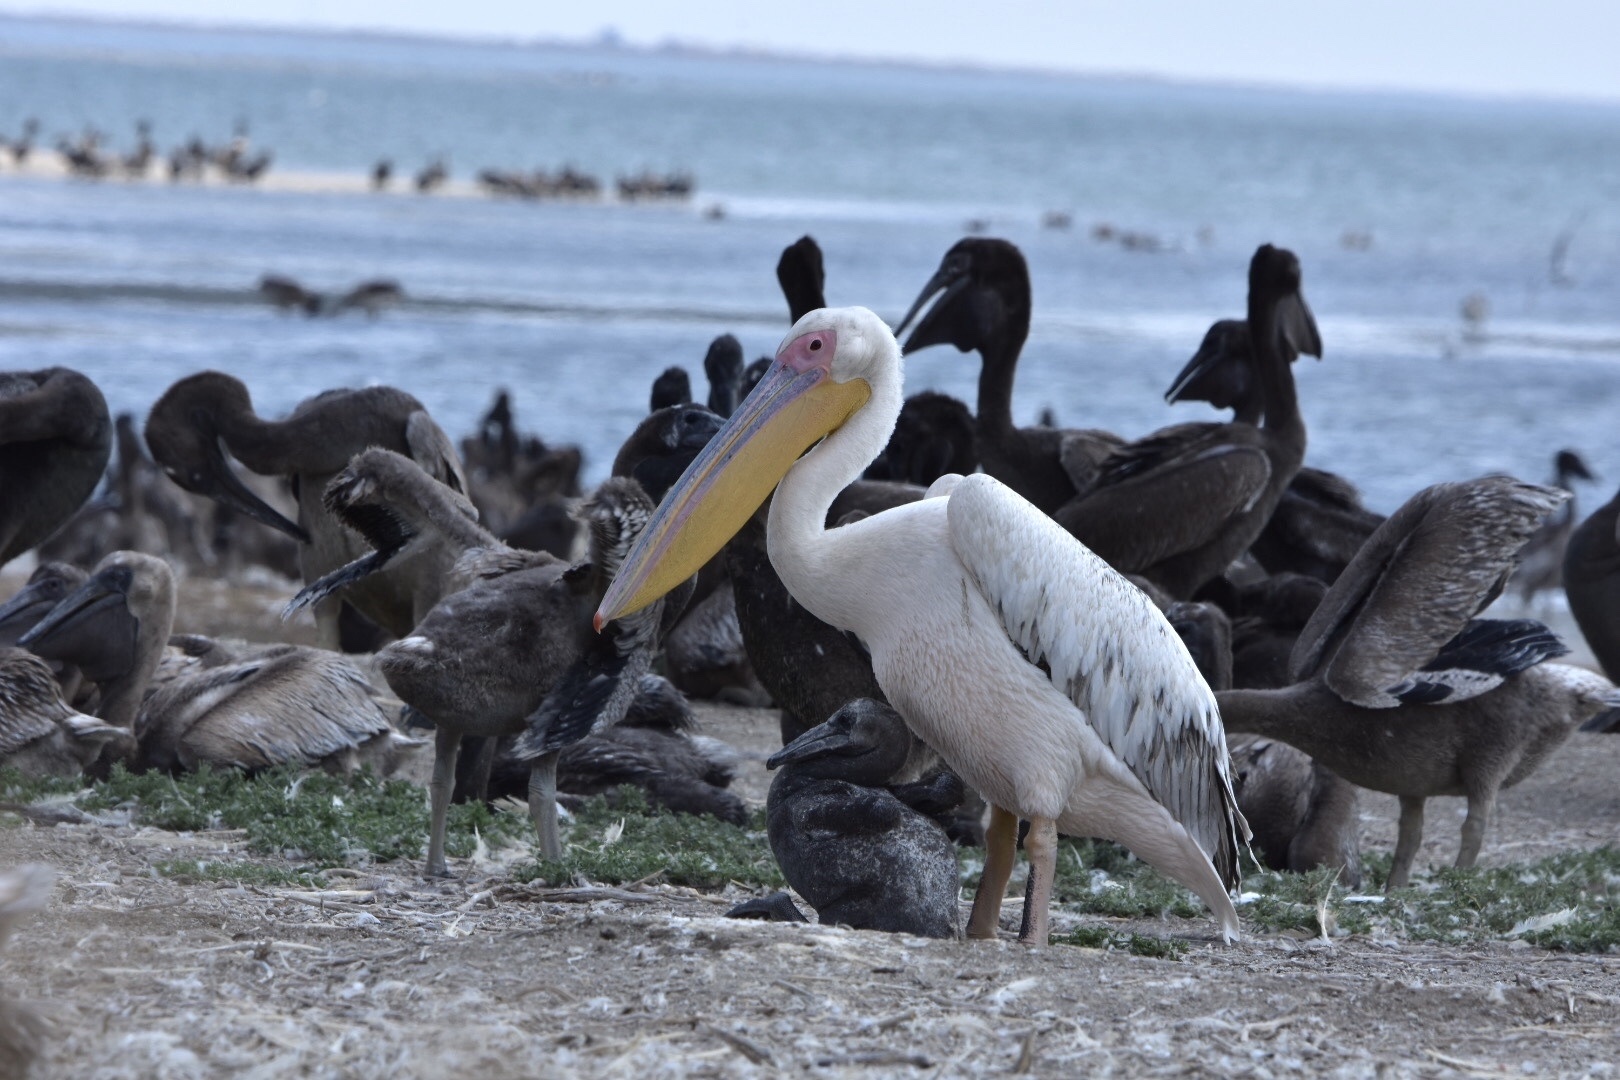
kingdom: Animalia
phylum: Chordata
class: Aves
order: Pelecaniformes
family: Pelecanidae
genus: Pelecanus
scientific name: Pelecanus onocrotalus
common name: Great white pelican
